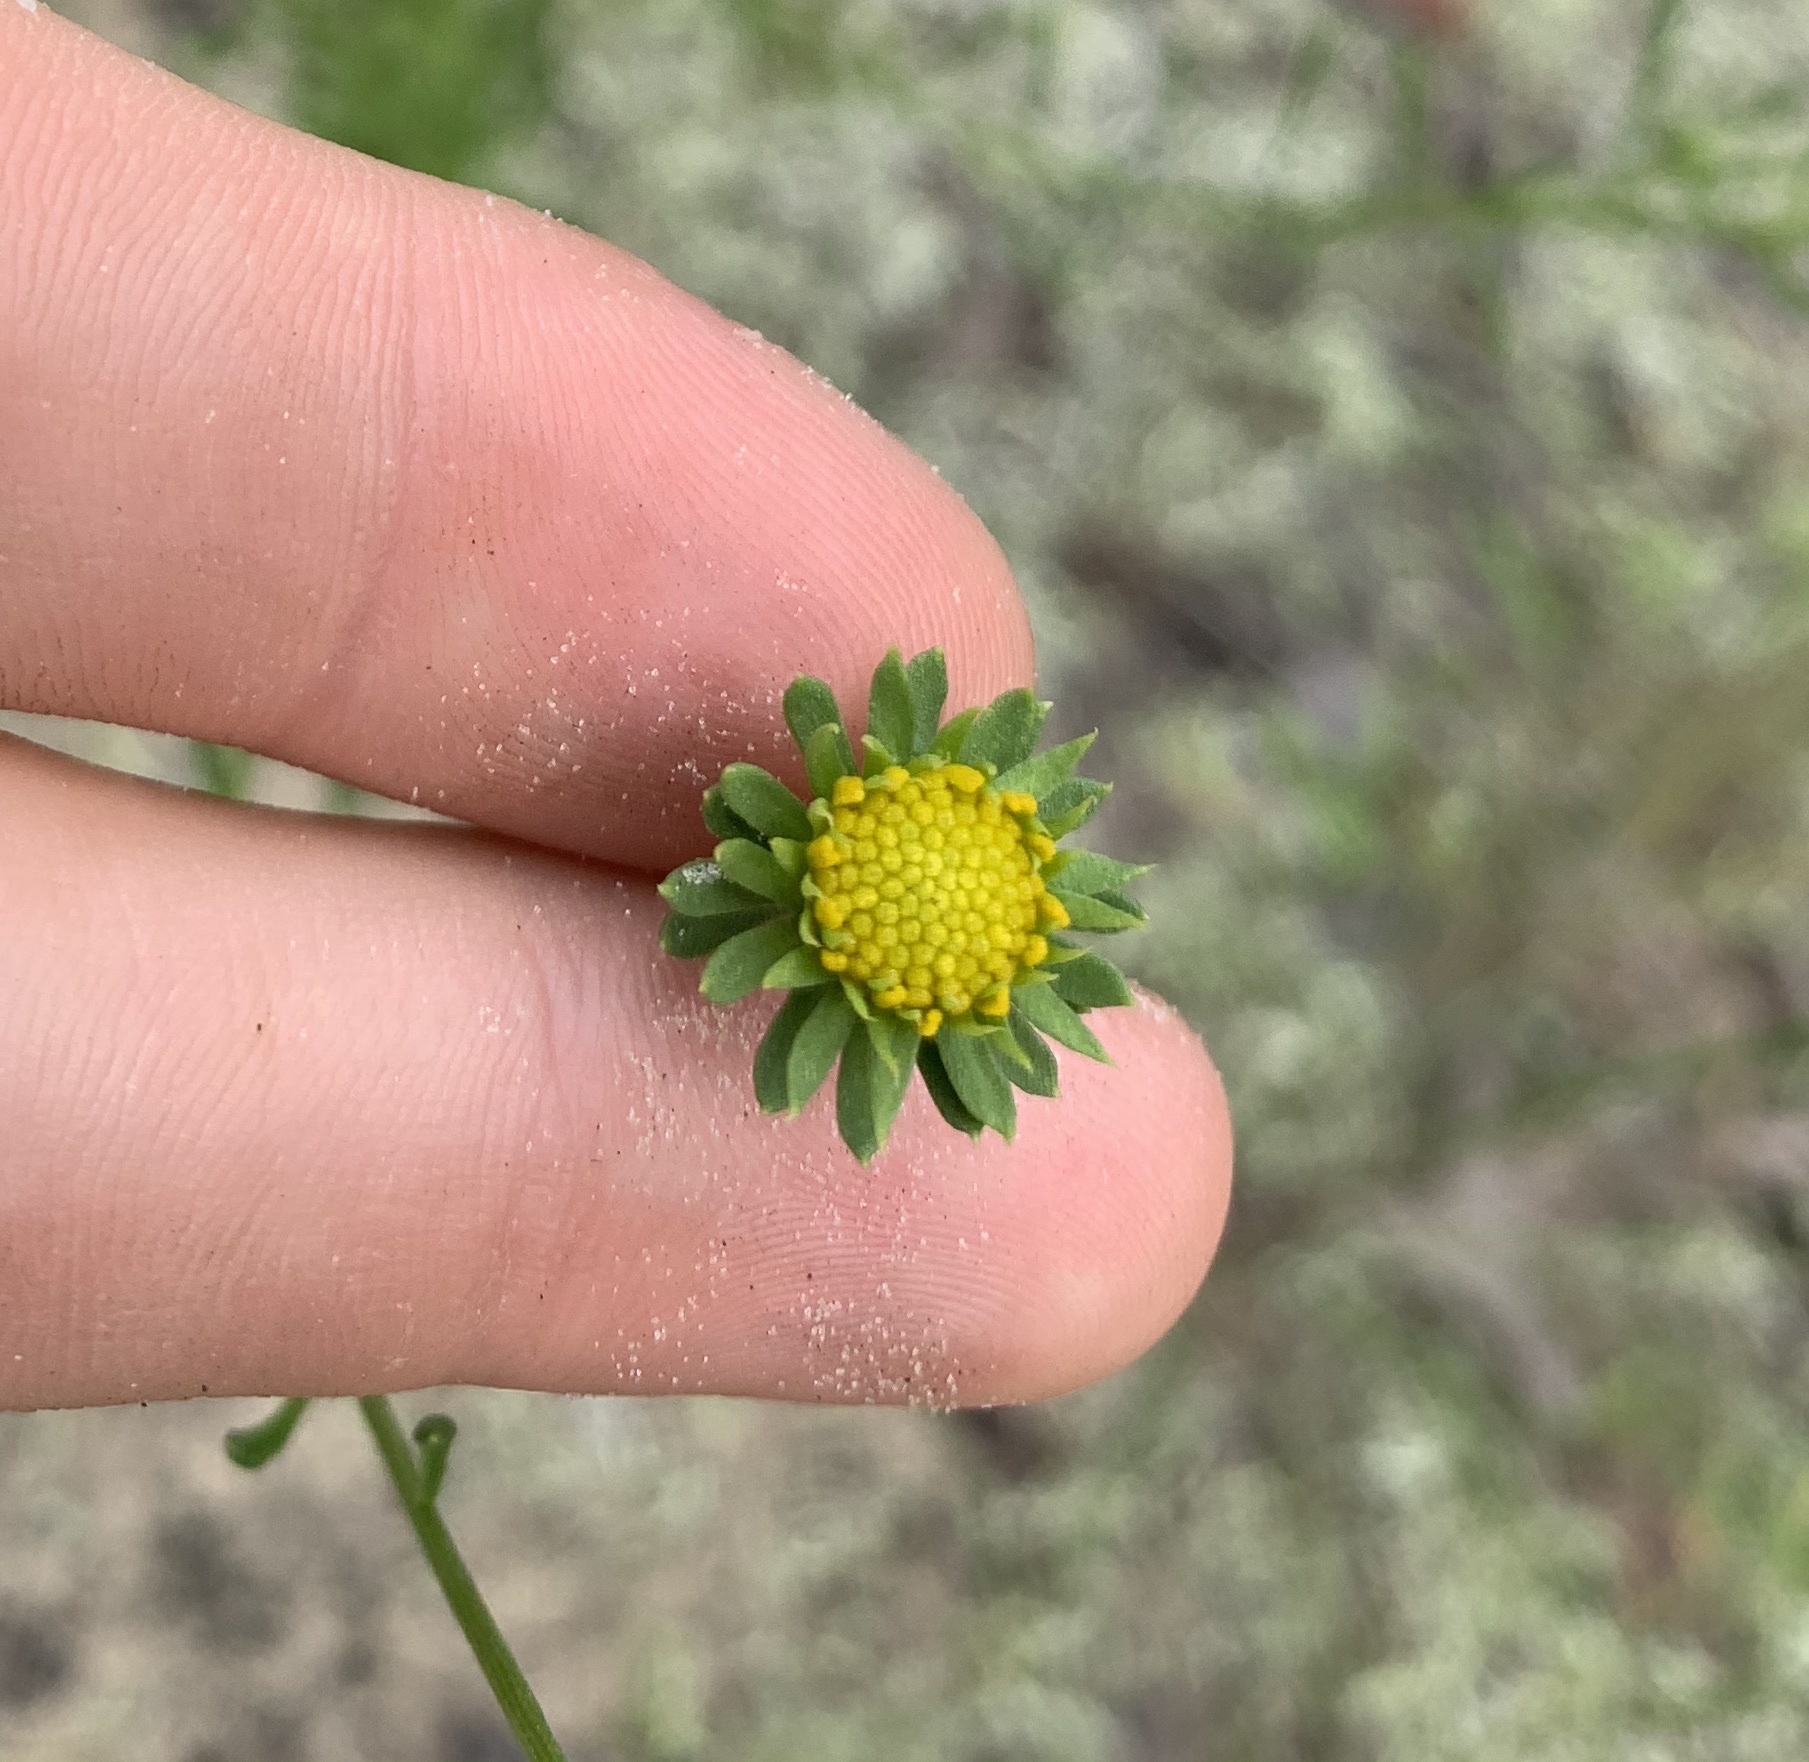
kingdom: Plantae
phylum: Tracheophyta
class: Magnoliopsida
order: Asterales
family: Asteraceae
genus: Balduina
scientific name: Balduina angustifolia
